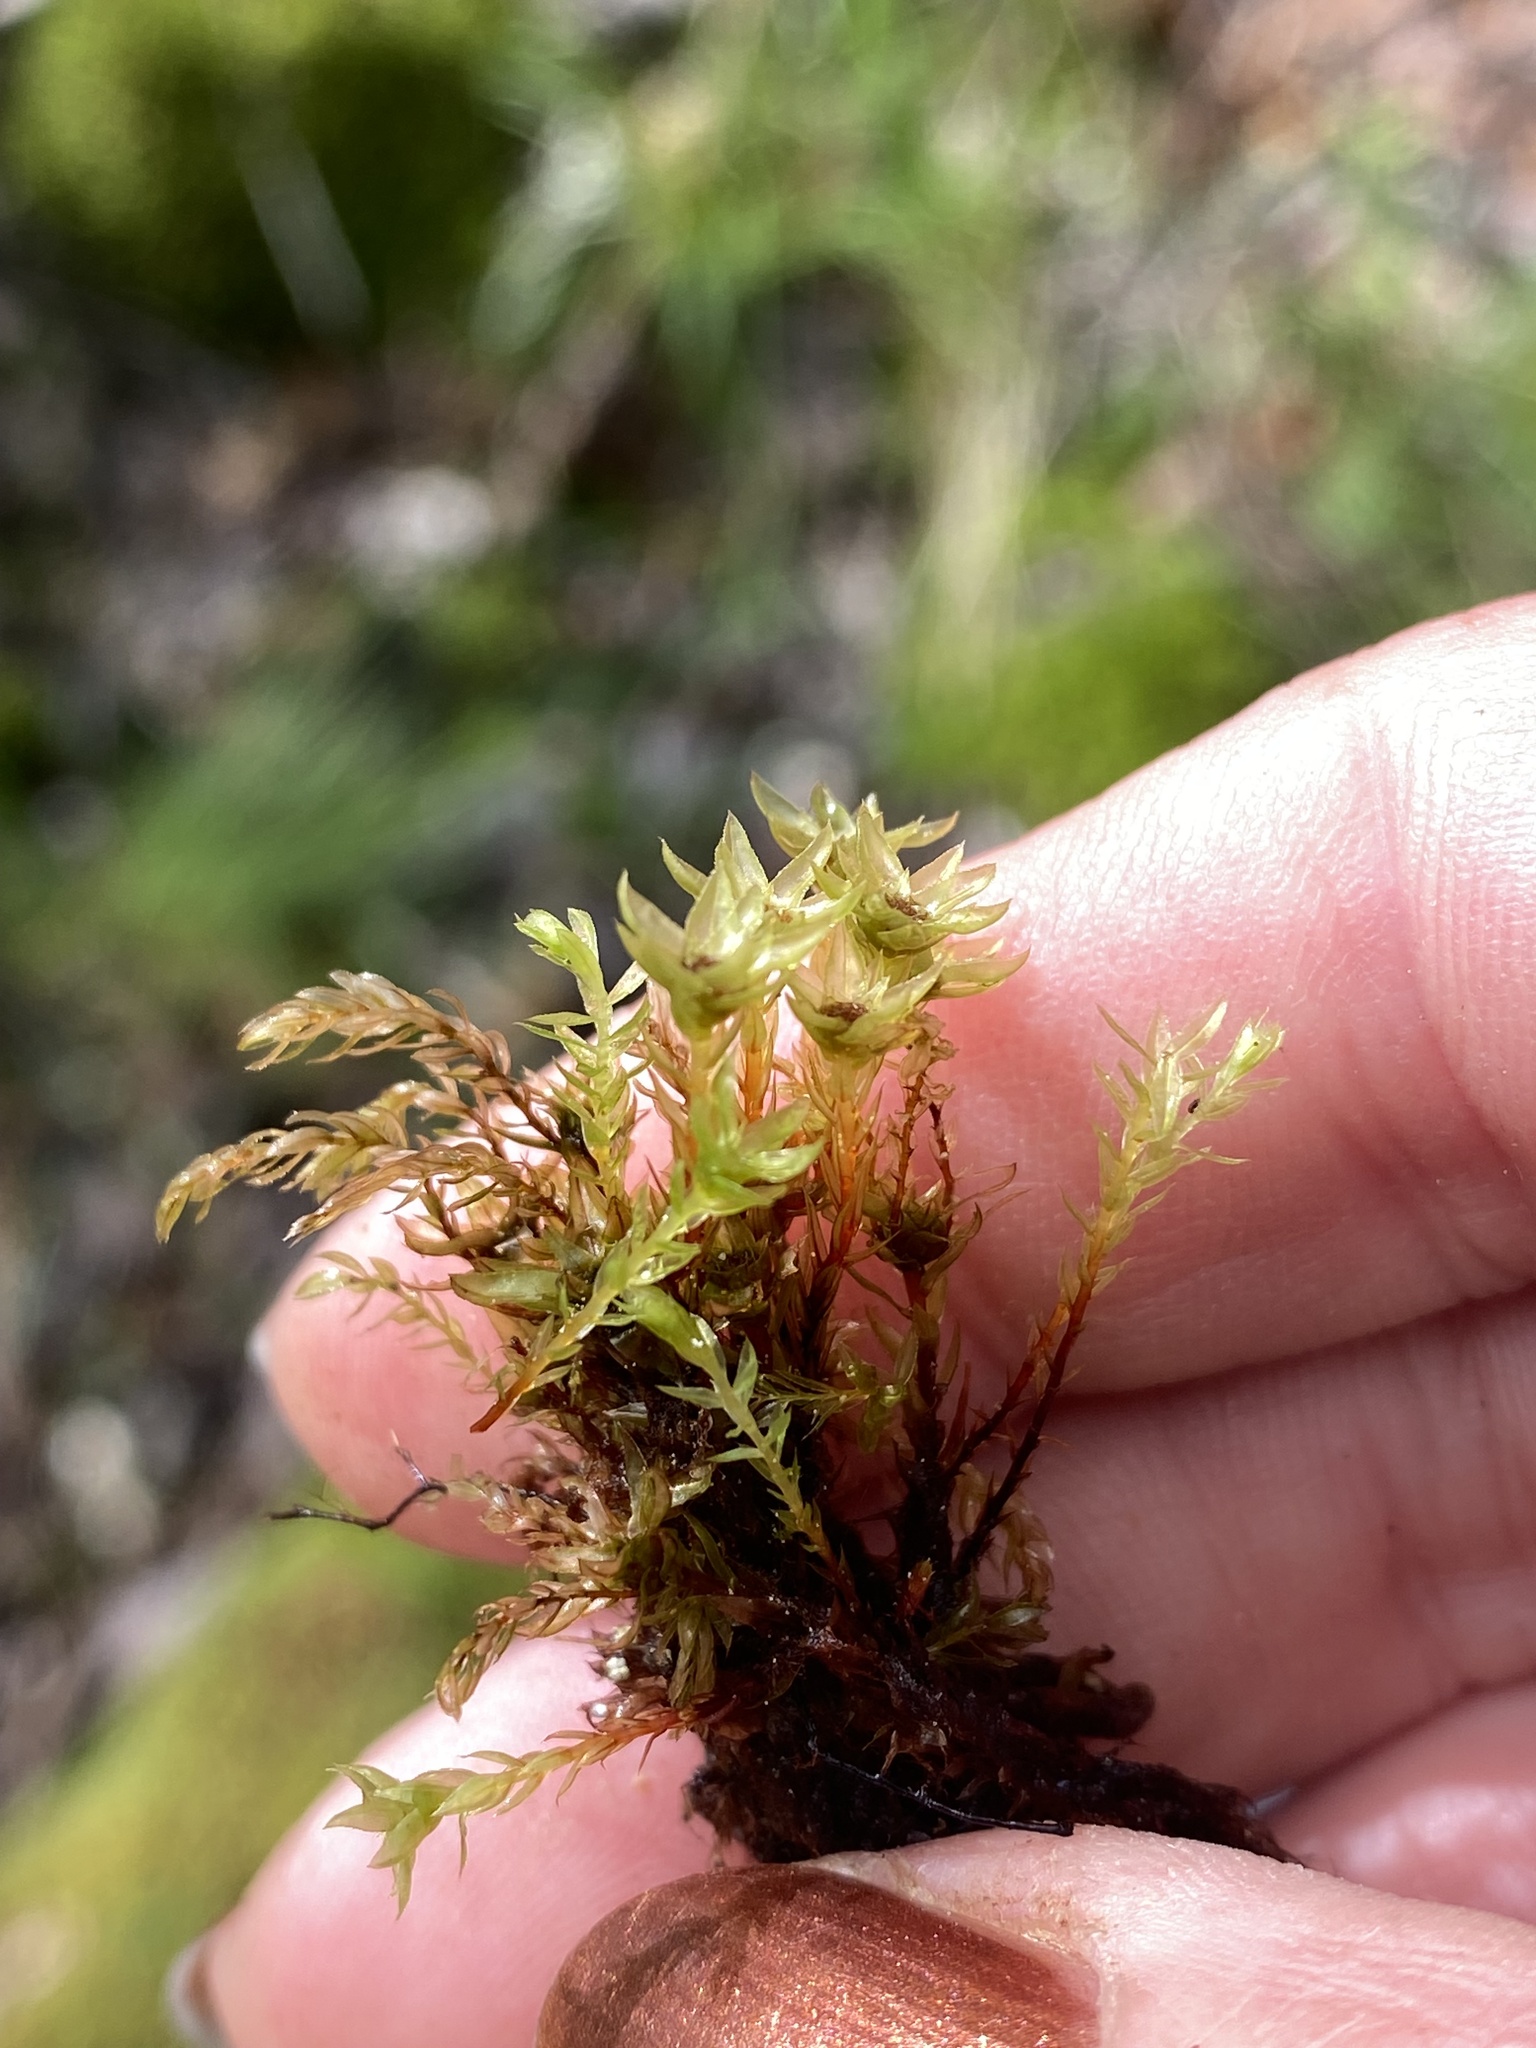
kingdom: Plantae
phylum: Bryophyta
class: Bryopsida
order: Bryales
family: Mniaceae
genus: Mnium
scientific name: Mnium hornum
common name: Swan's-neck leafy moss
